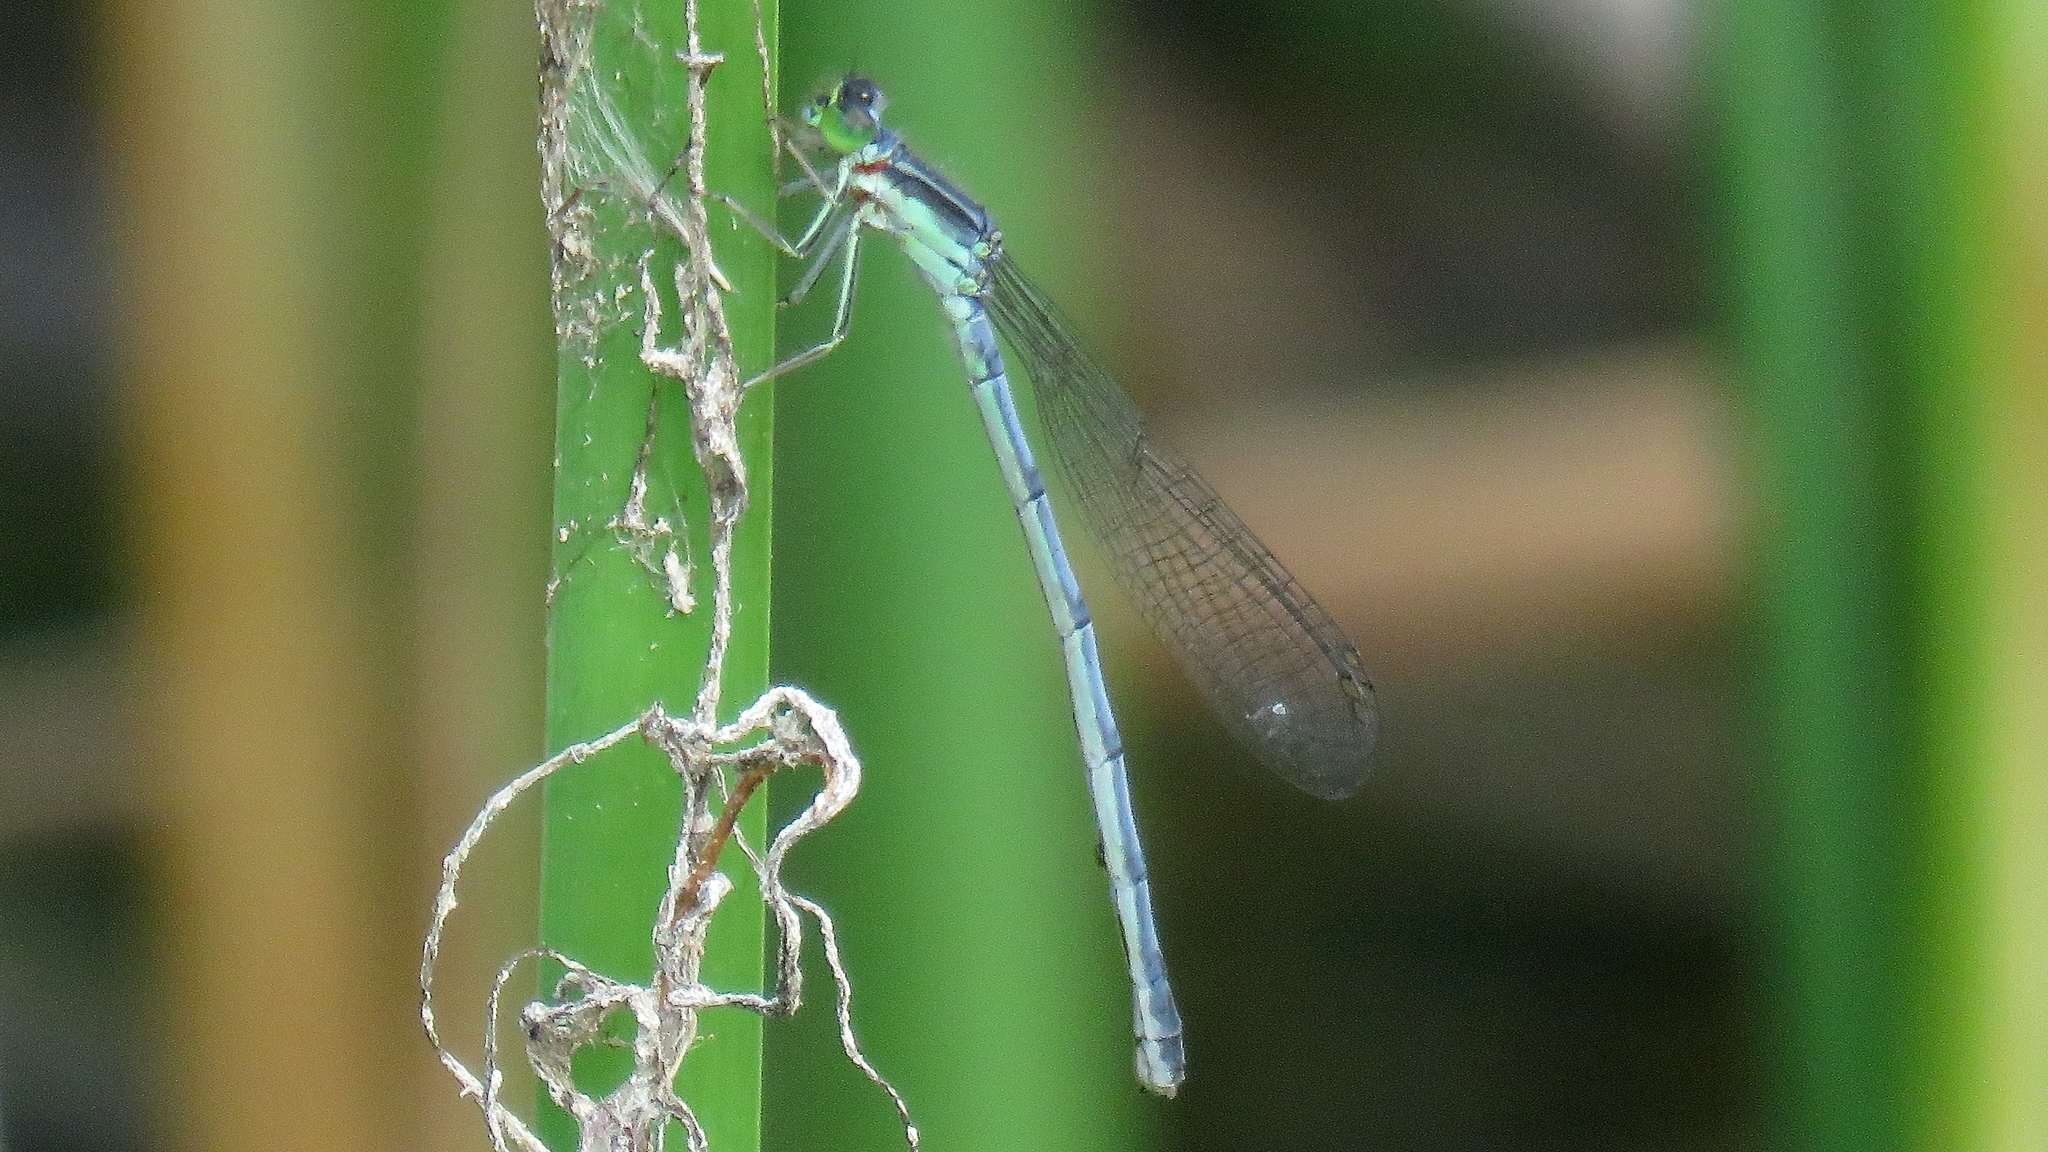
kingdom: Animalia
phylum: Arthropoda
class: Insecta
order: Odonata
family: Coenagrionidae
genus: Ischnura
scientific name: Ischnura verticalis
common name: Eastern forktail
